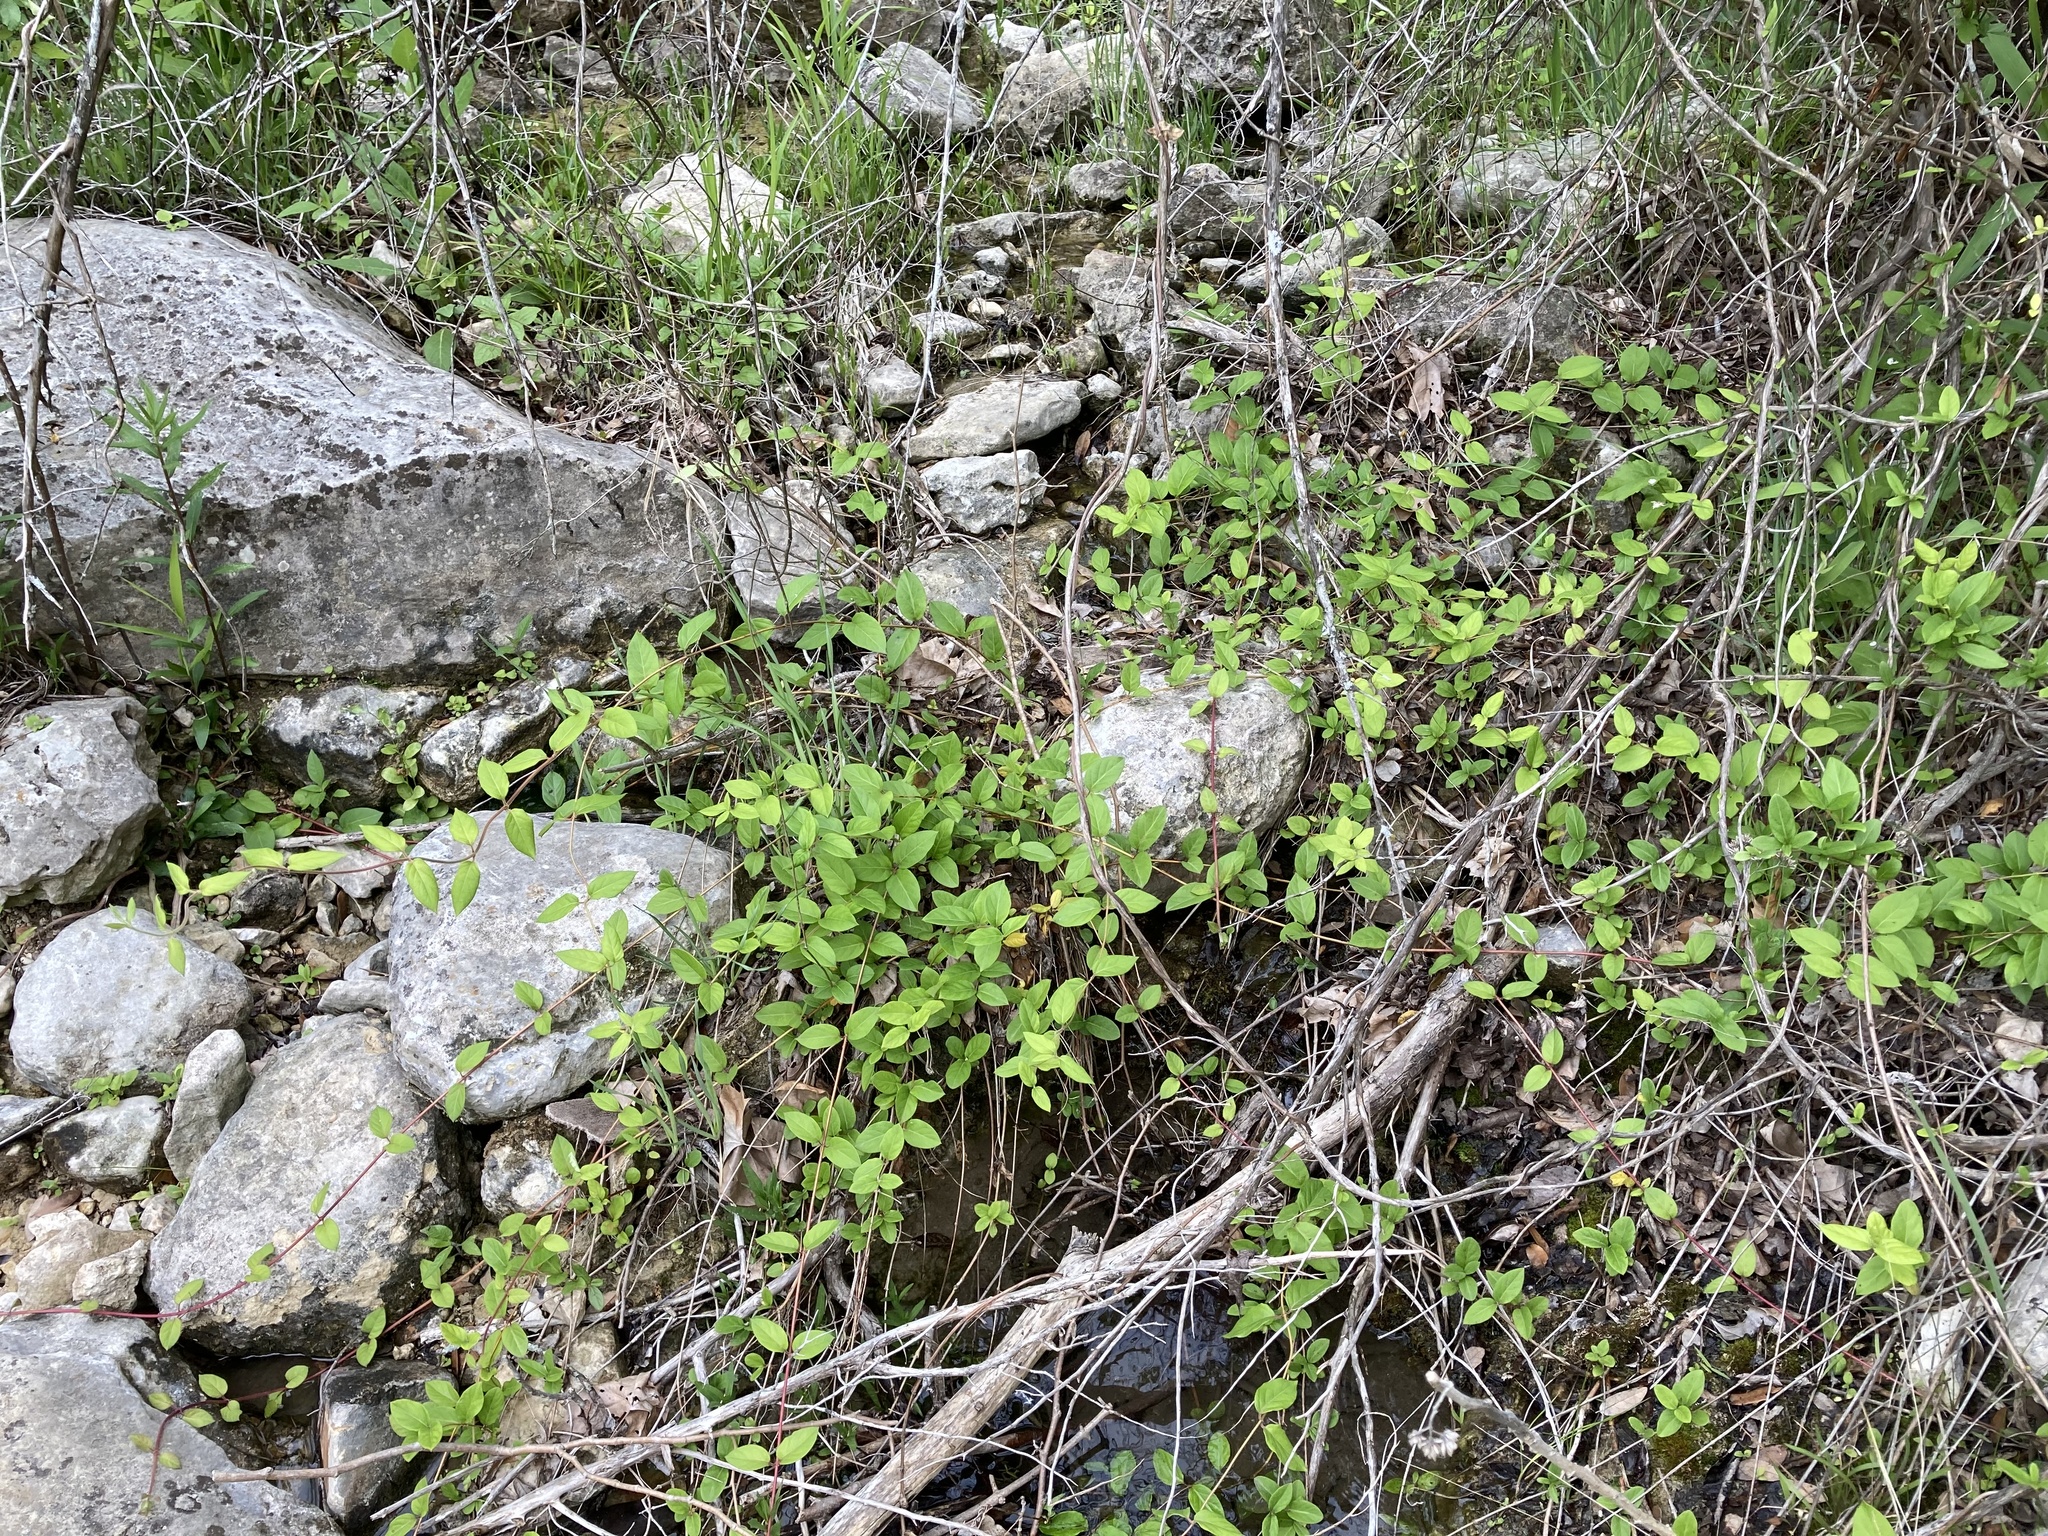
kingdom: Plantae
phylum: Tracheophyta
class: Magnoliopsida
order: Dipsacales
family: Caprifoliaceae
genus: Lonicera
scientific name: Lonicera japonica
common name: Japanese honeysuckle
